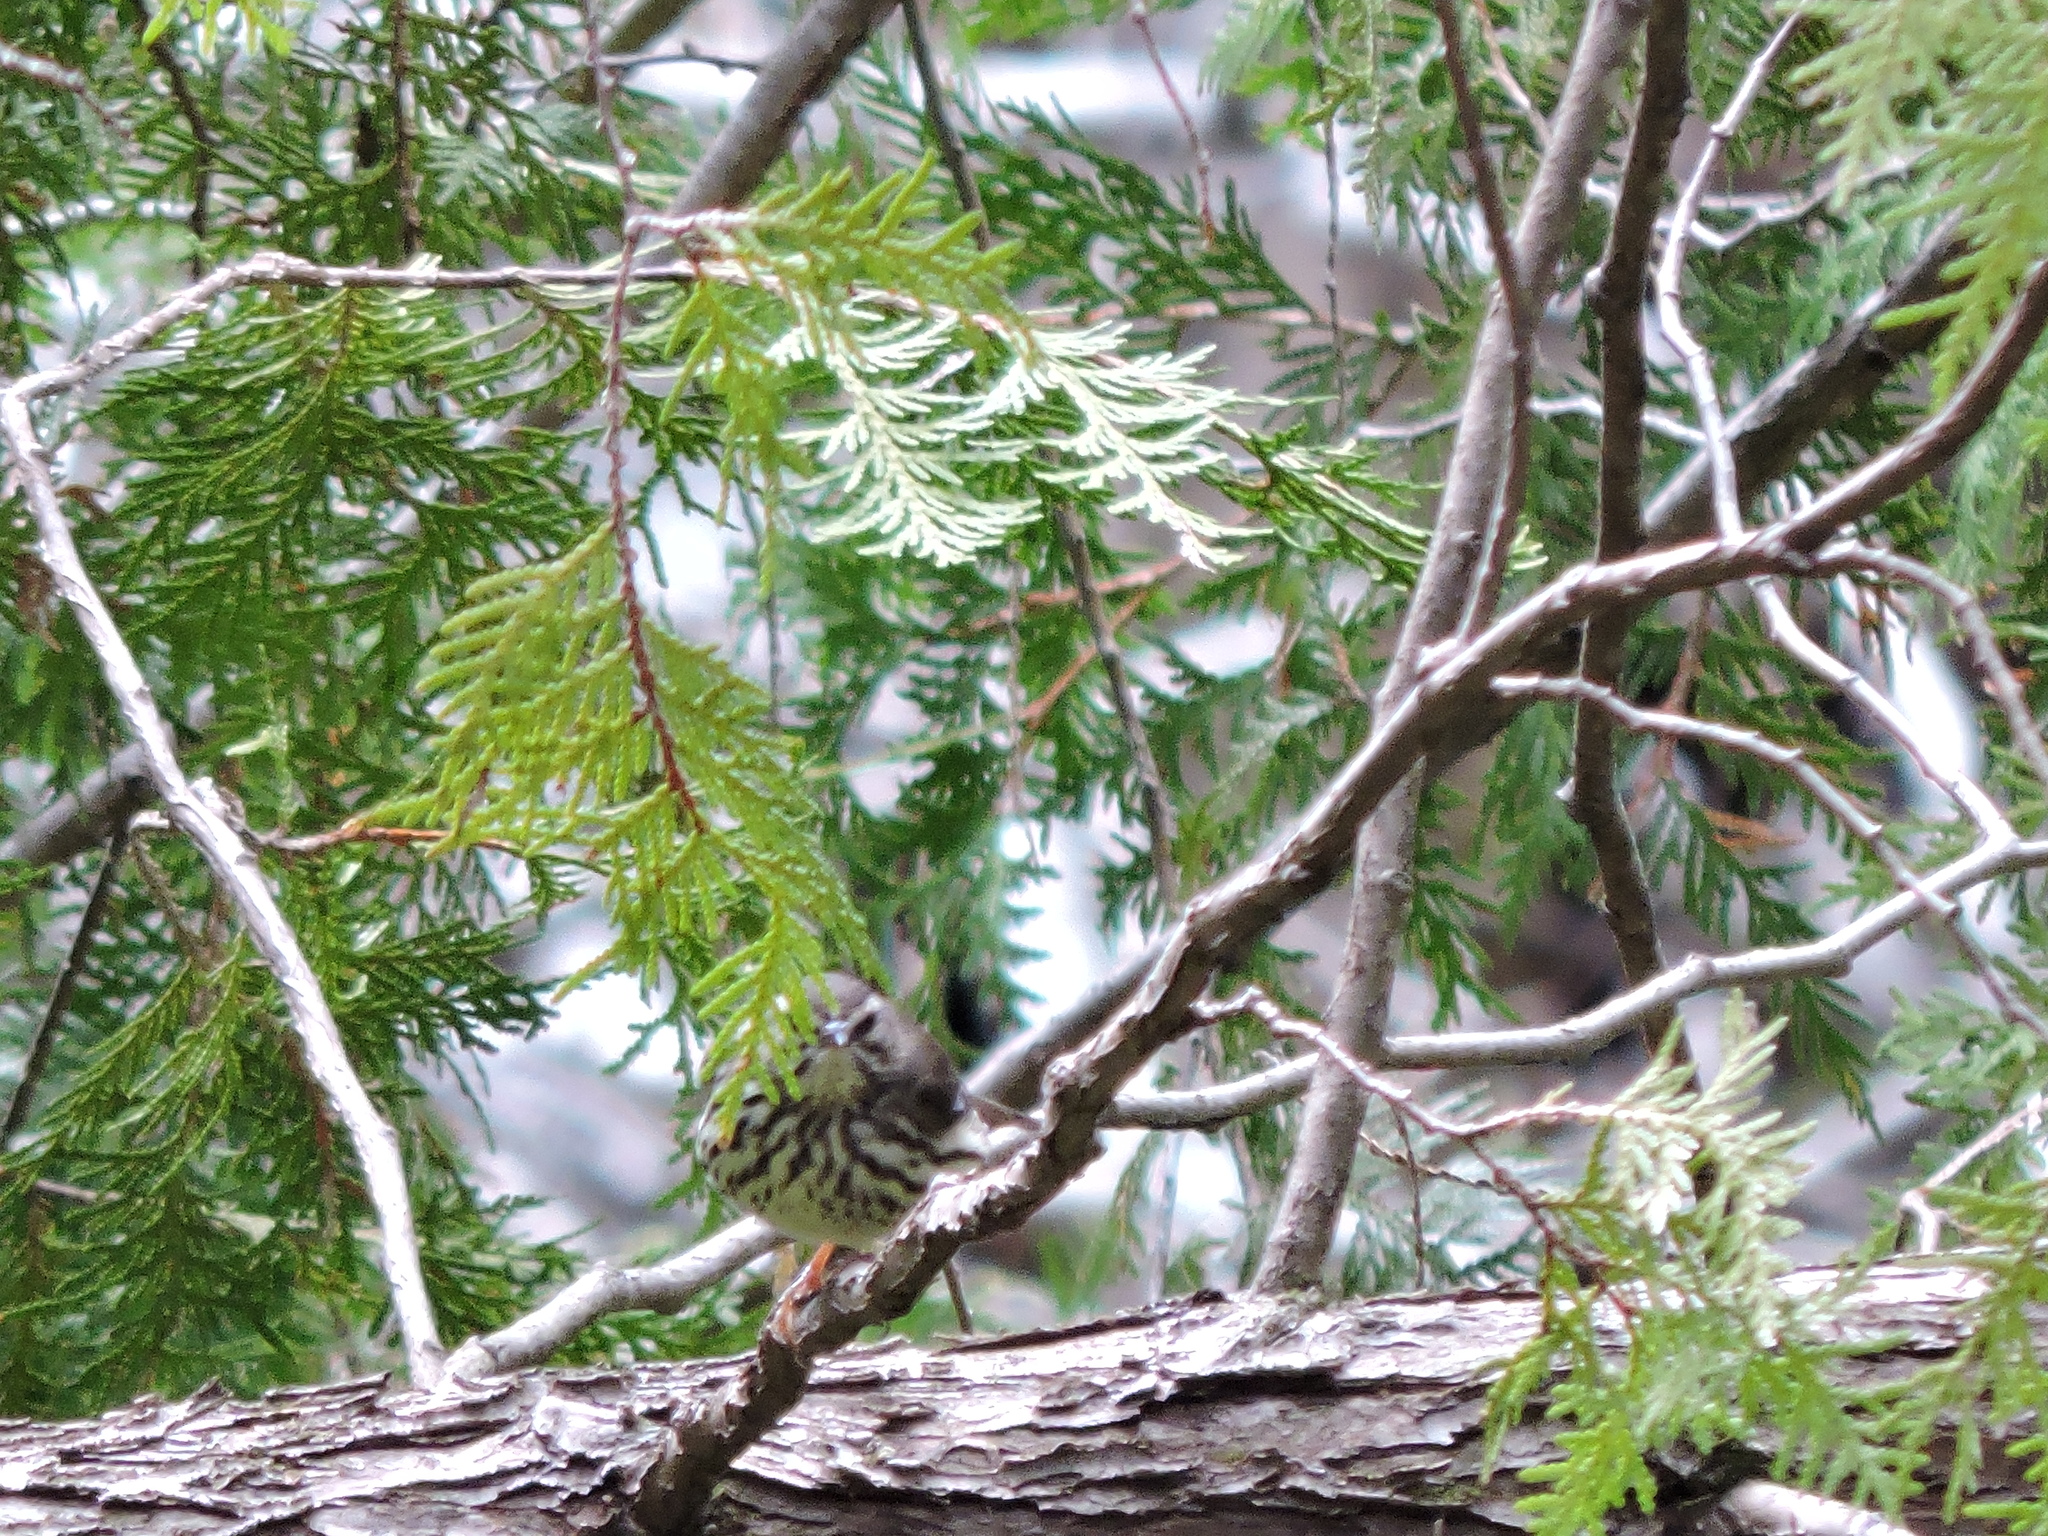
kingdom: Animalia
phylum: Chordata
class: Aves
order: Passeriformes
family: Parulidae
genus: Parkesia
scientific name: Parkesia noveboracensis
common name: Northern waterthrush
